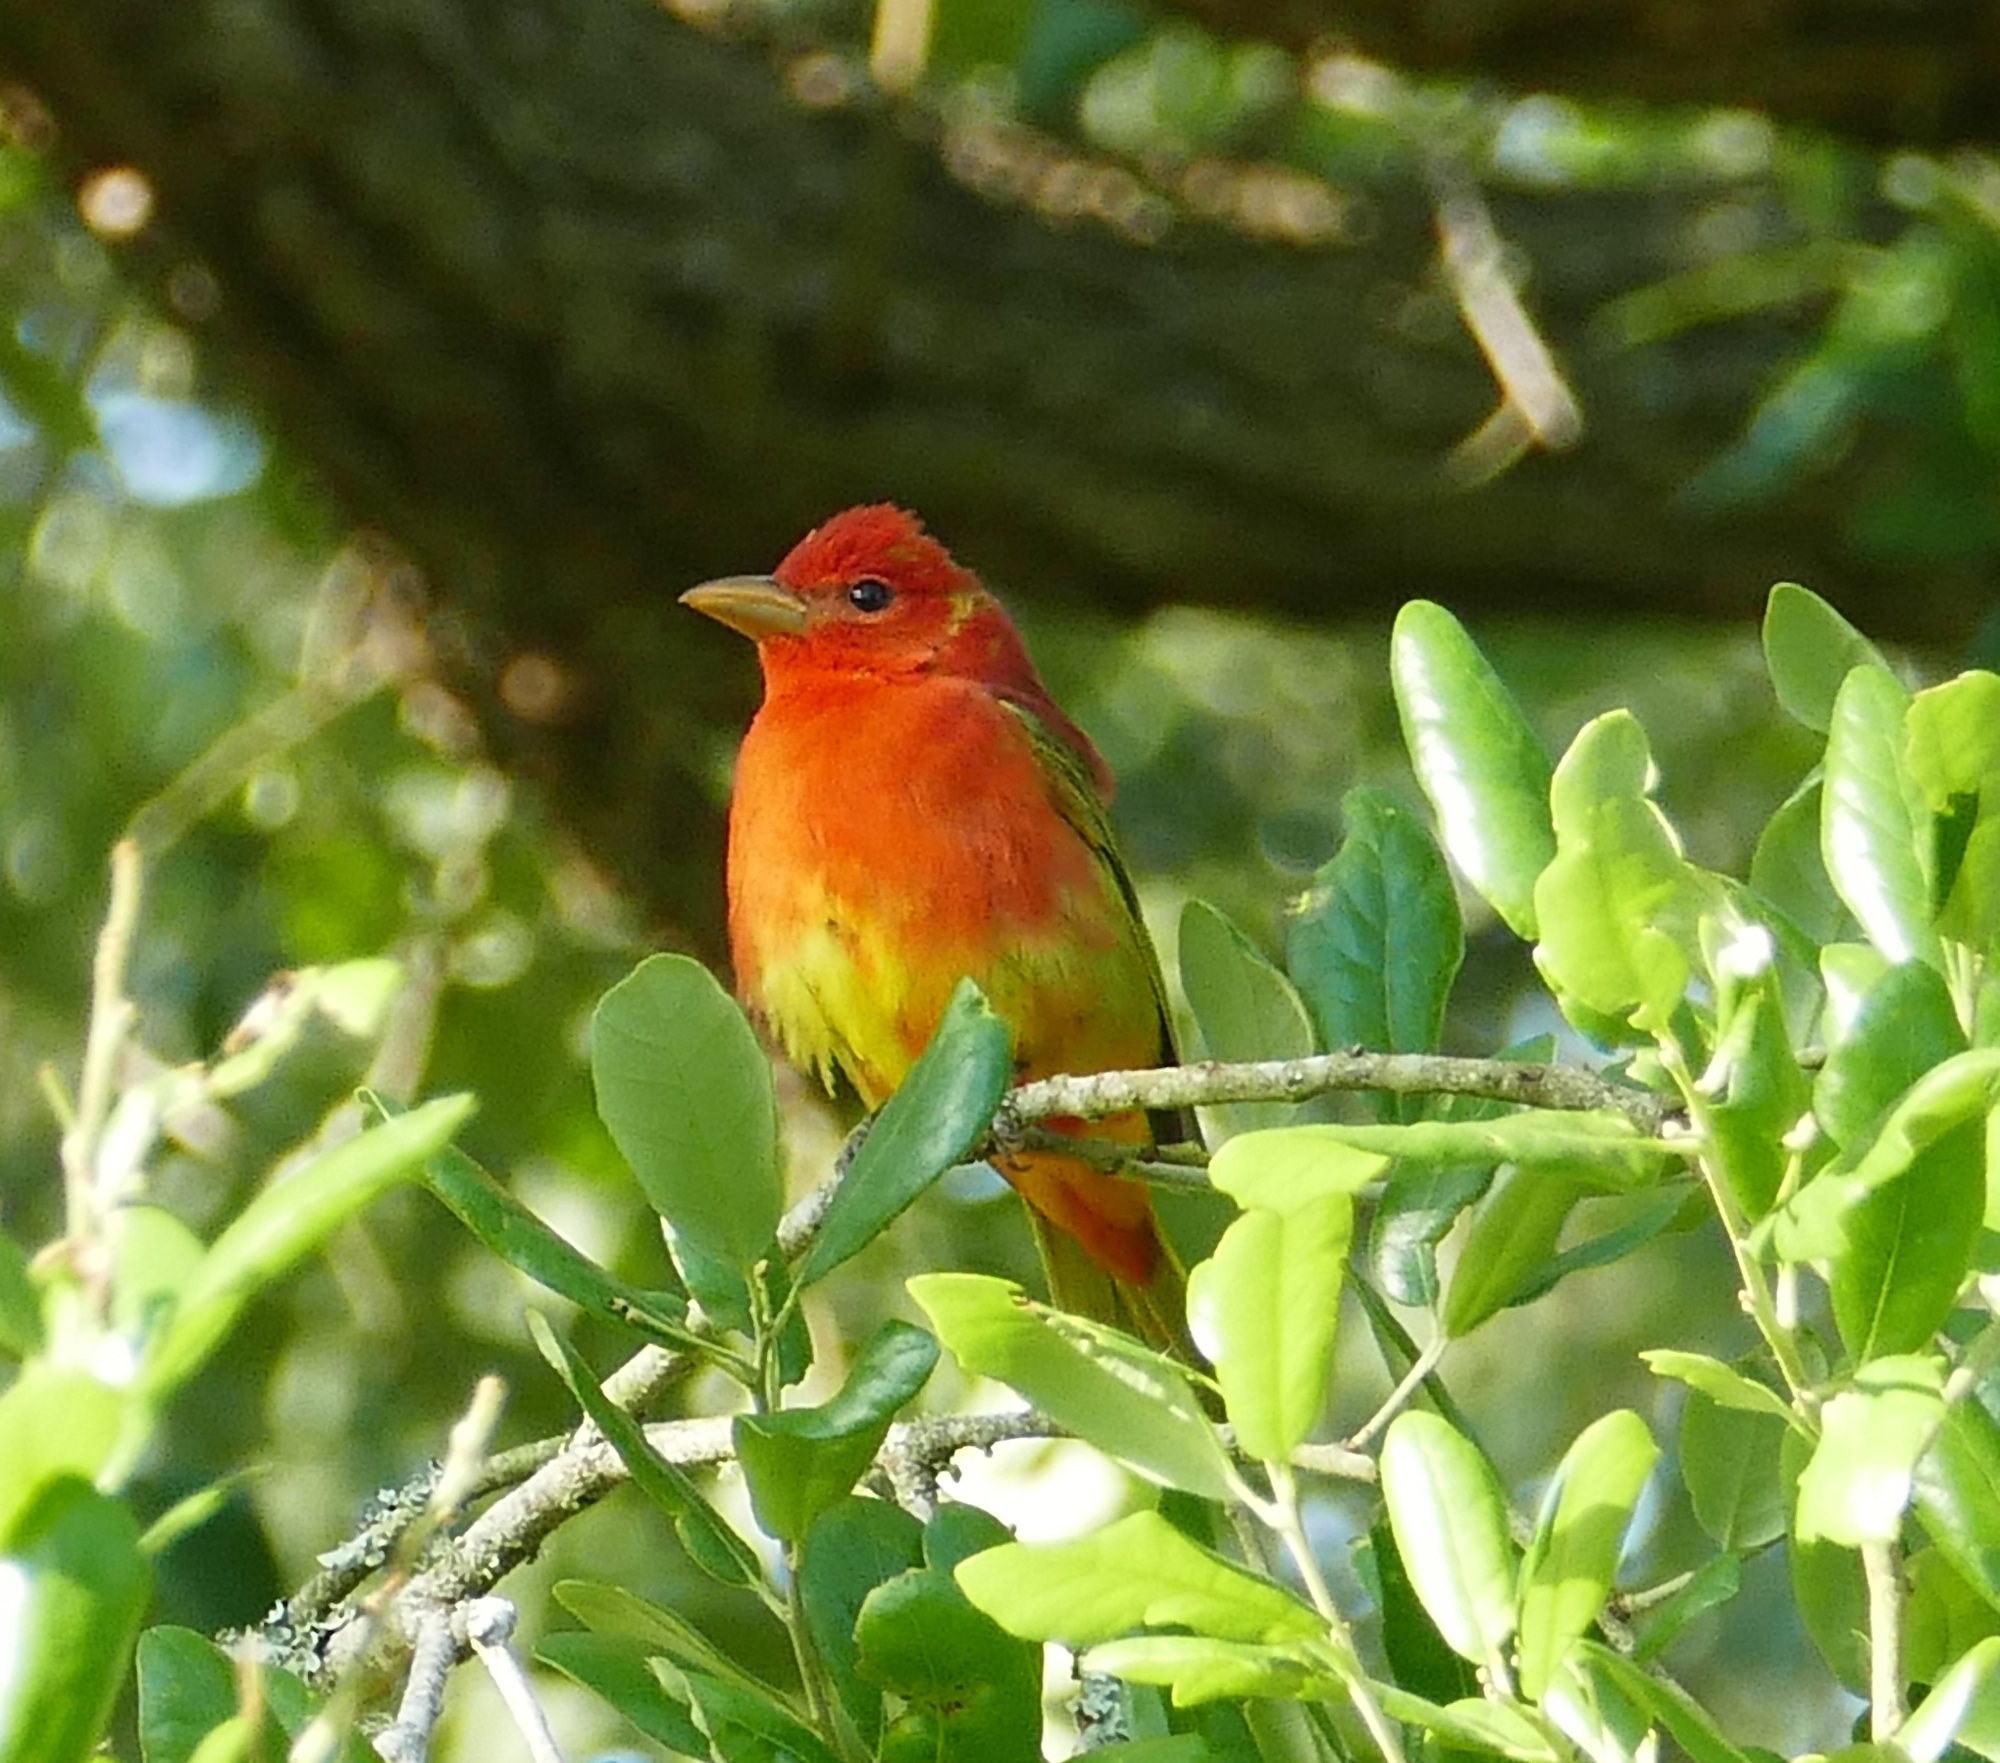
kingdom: Animalia
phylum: Chordata
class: Aves
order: Passeriformes
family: Cardinalidae
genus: Piranga
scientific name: Piranga rubra
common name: Summer tanager
